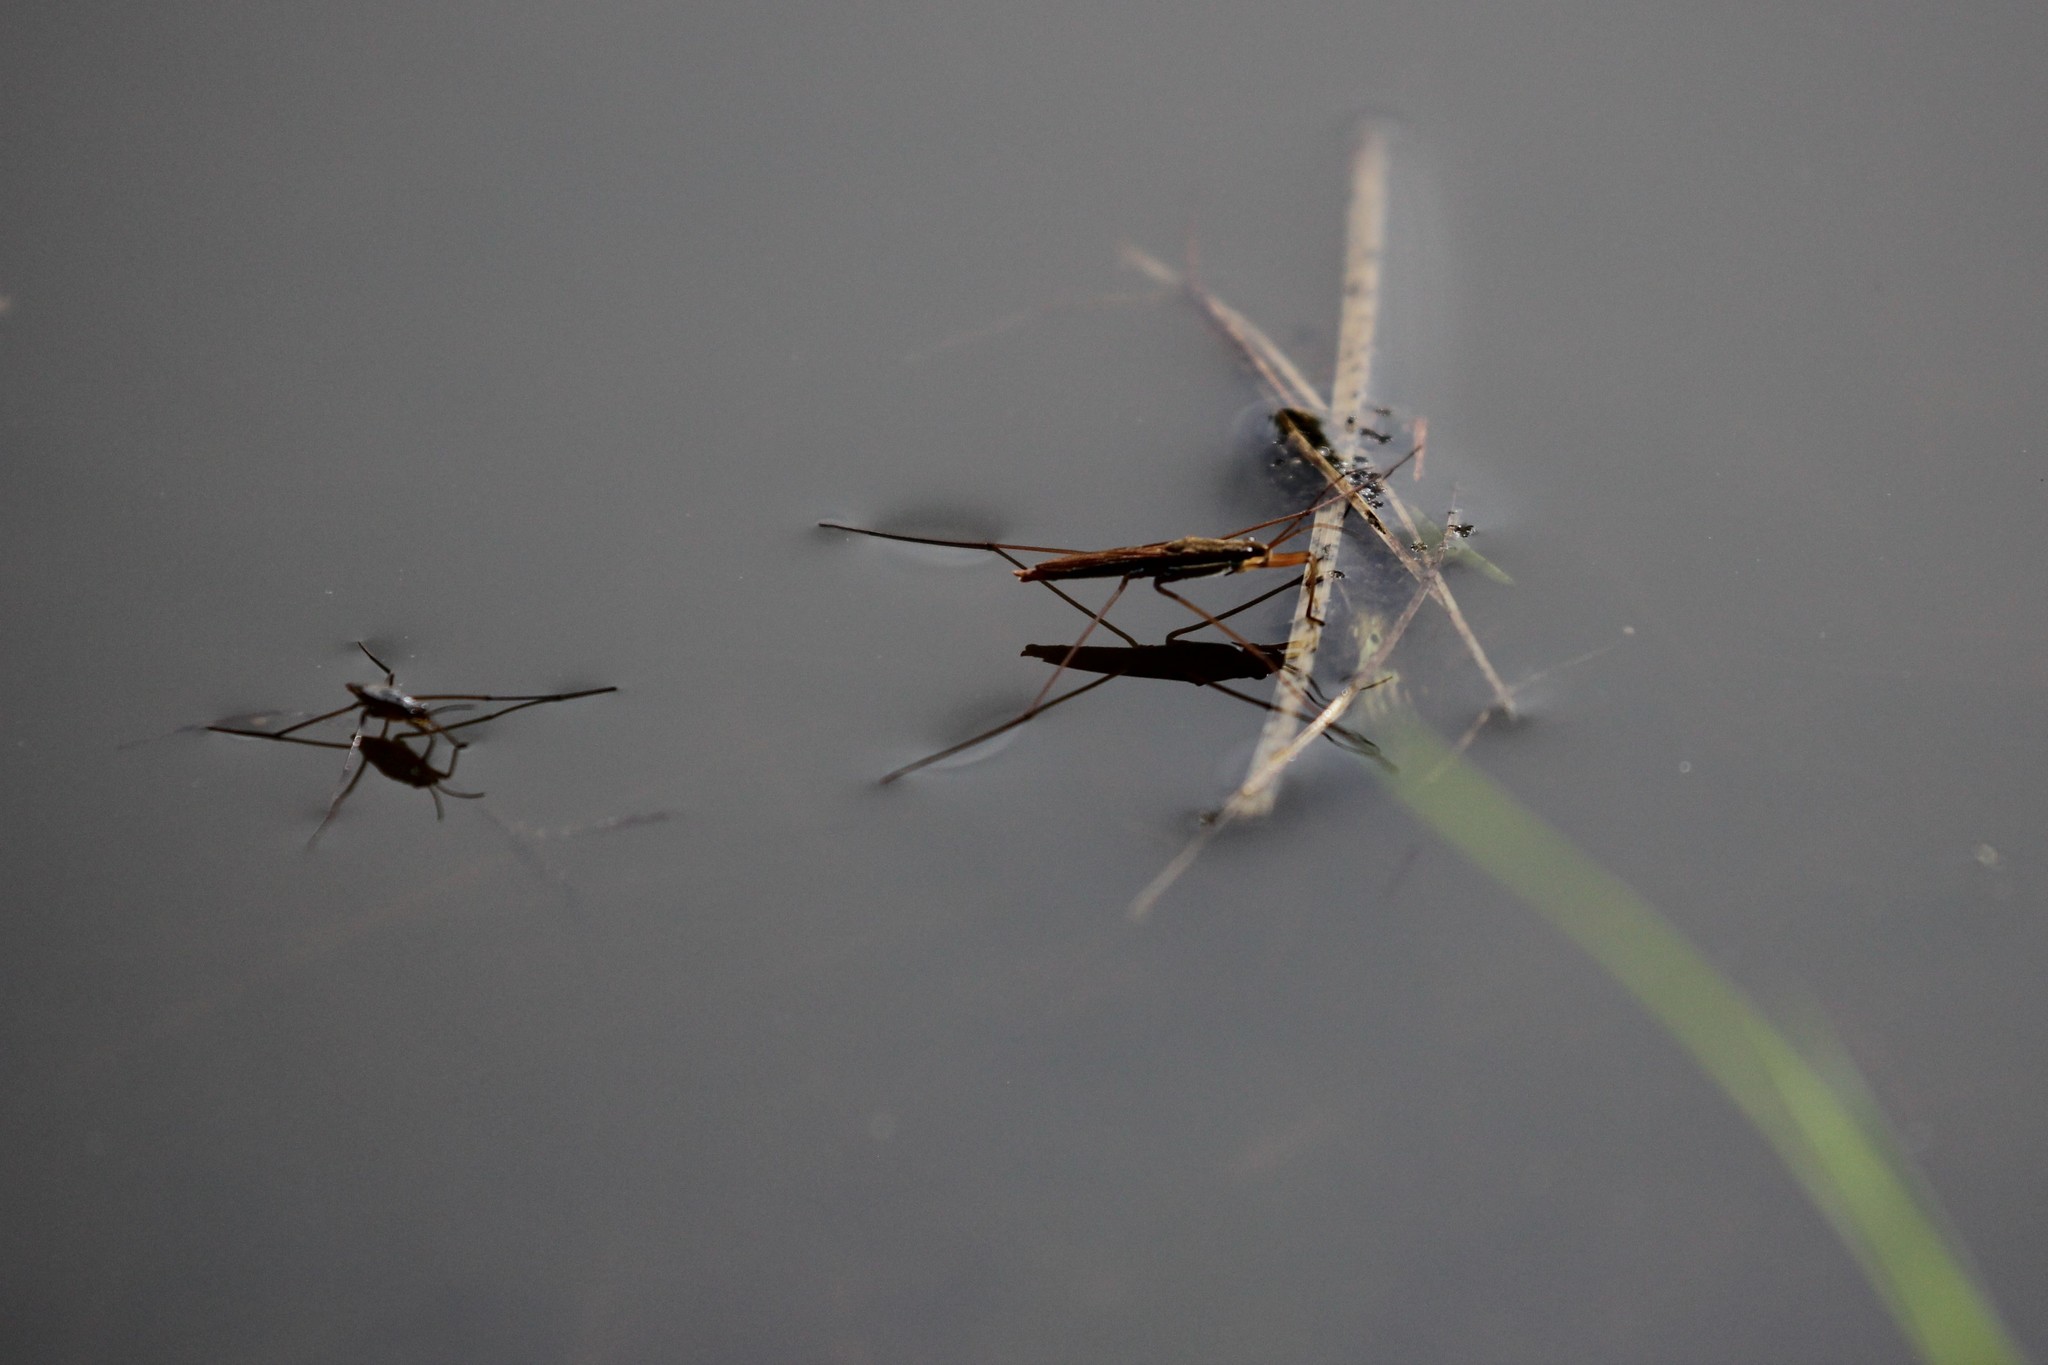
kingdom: Animalia
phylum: Arthropoda
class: Insecta
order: Hemiptera
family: Gerridae
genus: Limnoporus
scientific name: Limnoporus dissortis
